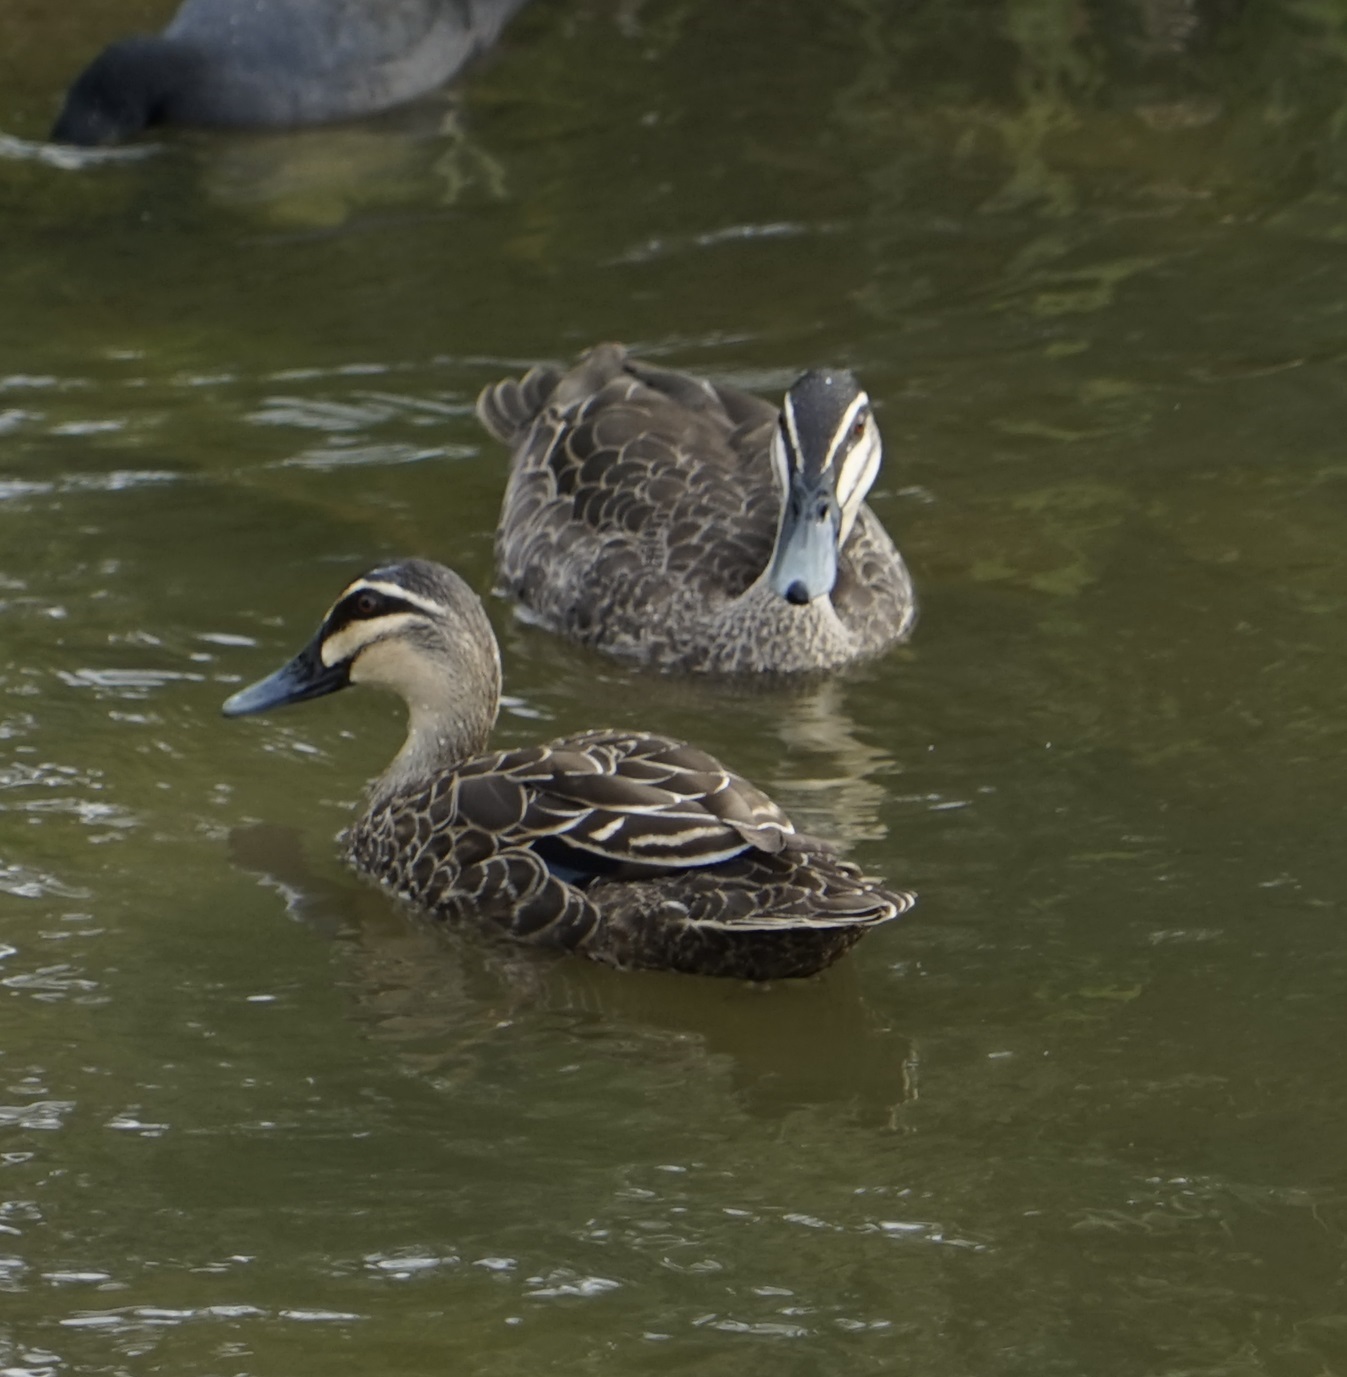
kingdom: Animalia
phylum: Chordata
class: Aves
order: Anseriformes
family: Anatidae
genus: Anas
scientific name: Anas superciliosa
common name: Pacific black duck
